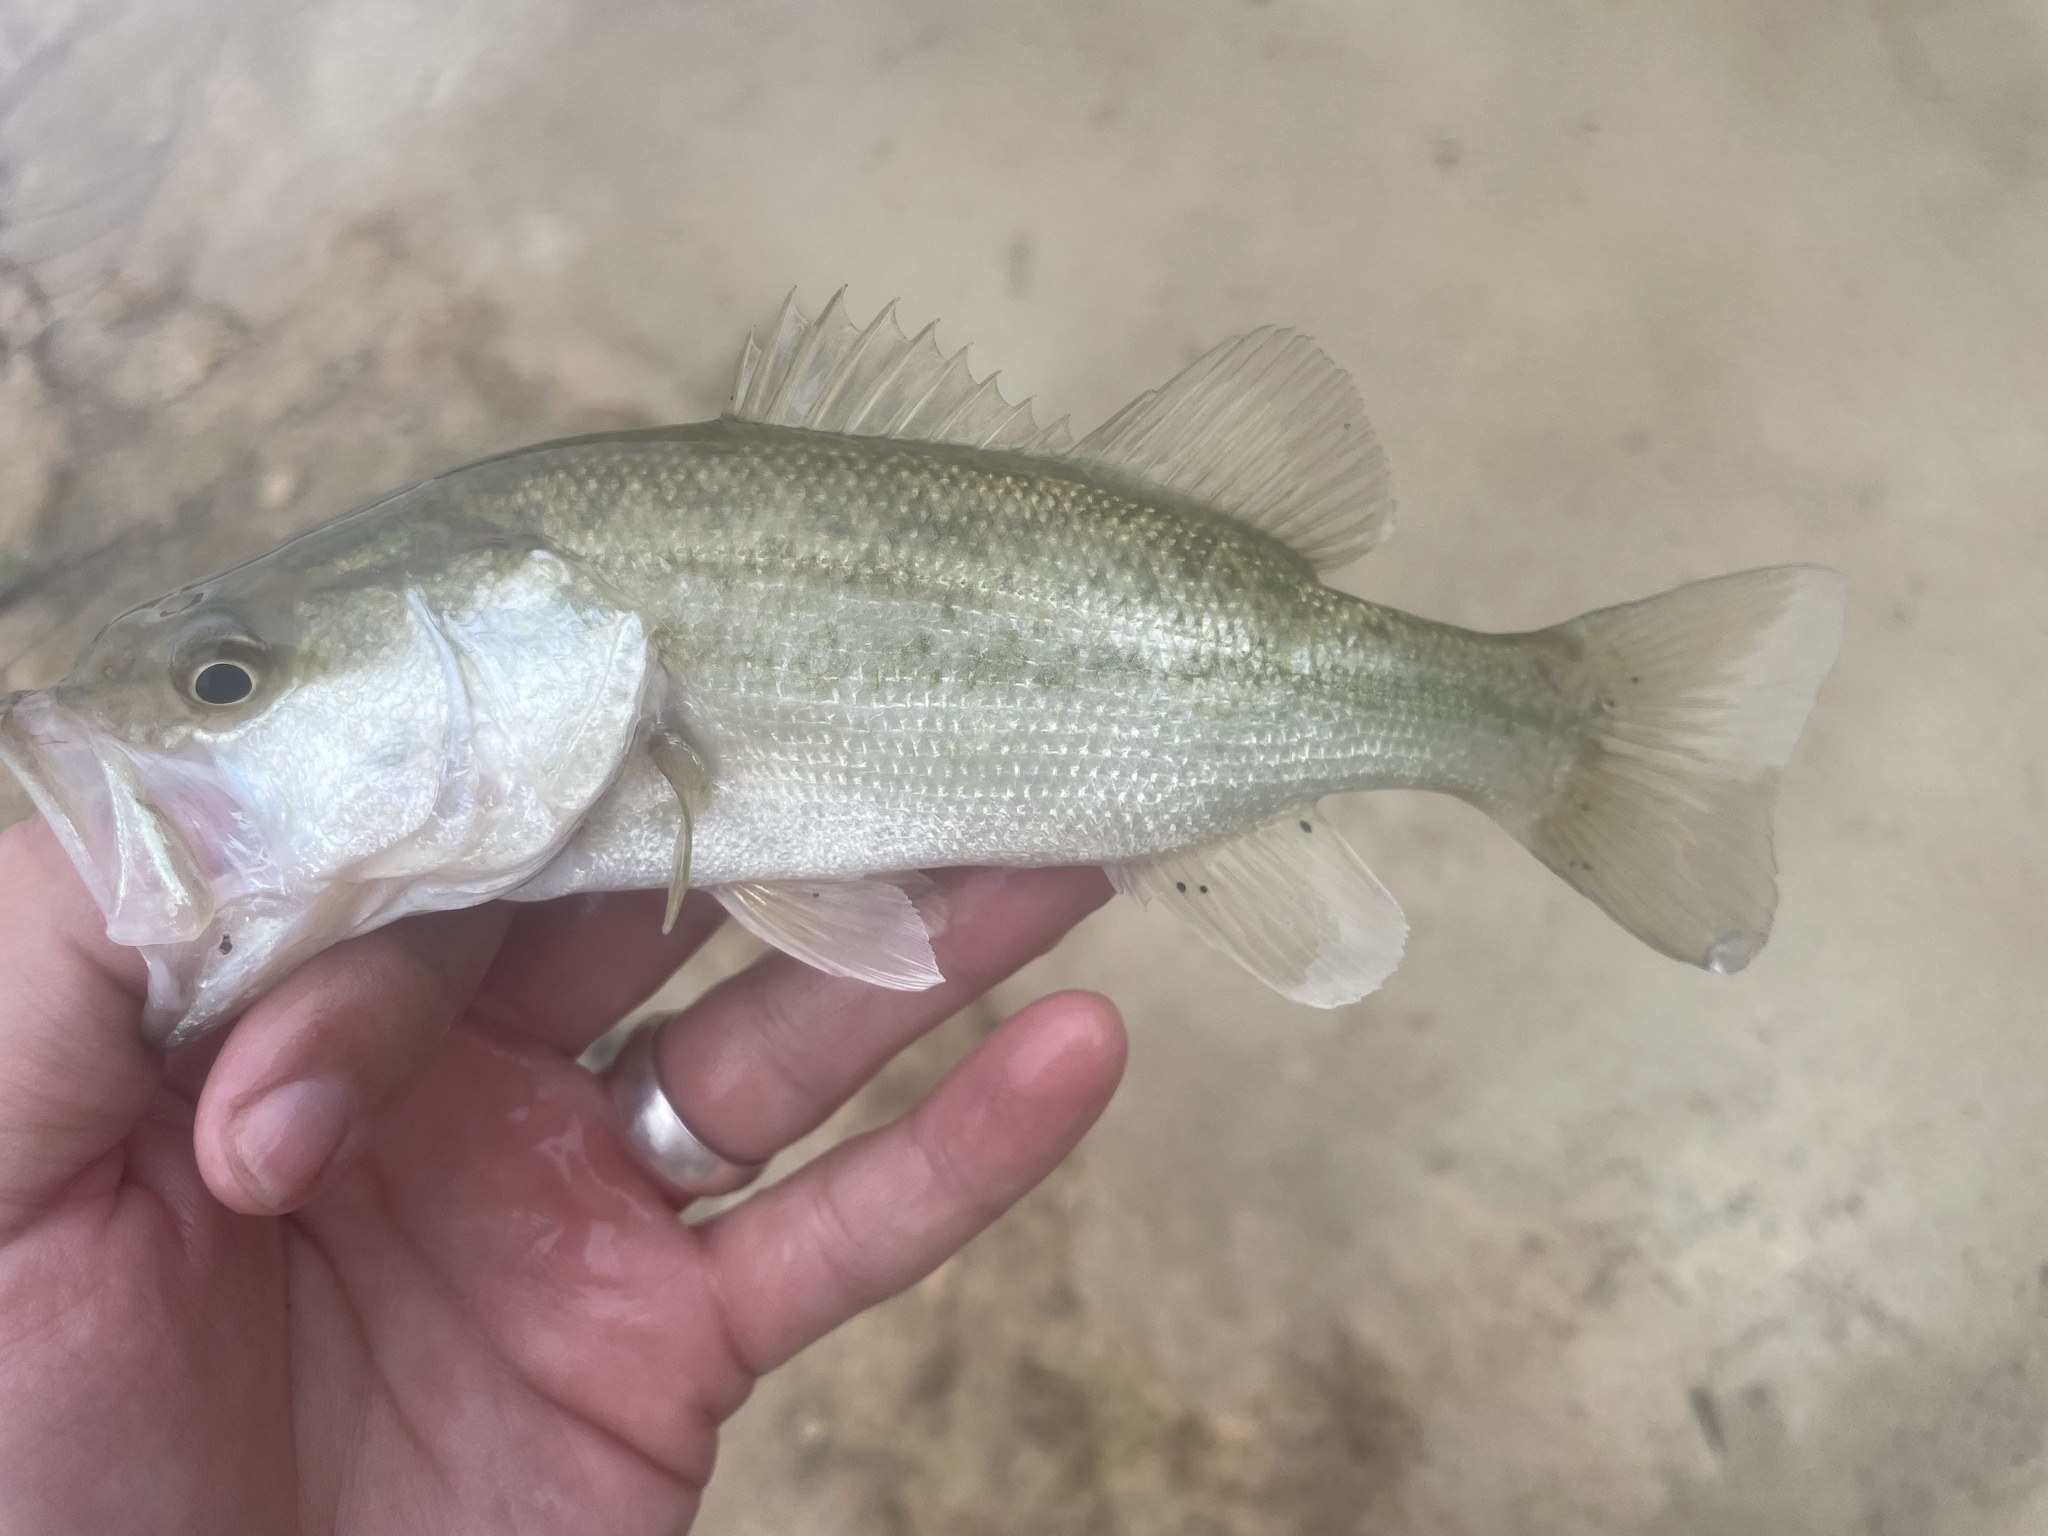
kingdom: Animalia
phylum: Chordata
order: Perciformes
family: Centrarchidae
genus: Micropterus
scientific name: Micropterus
